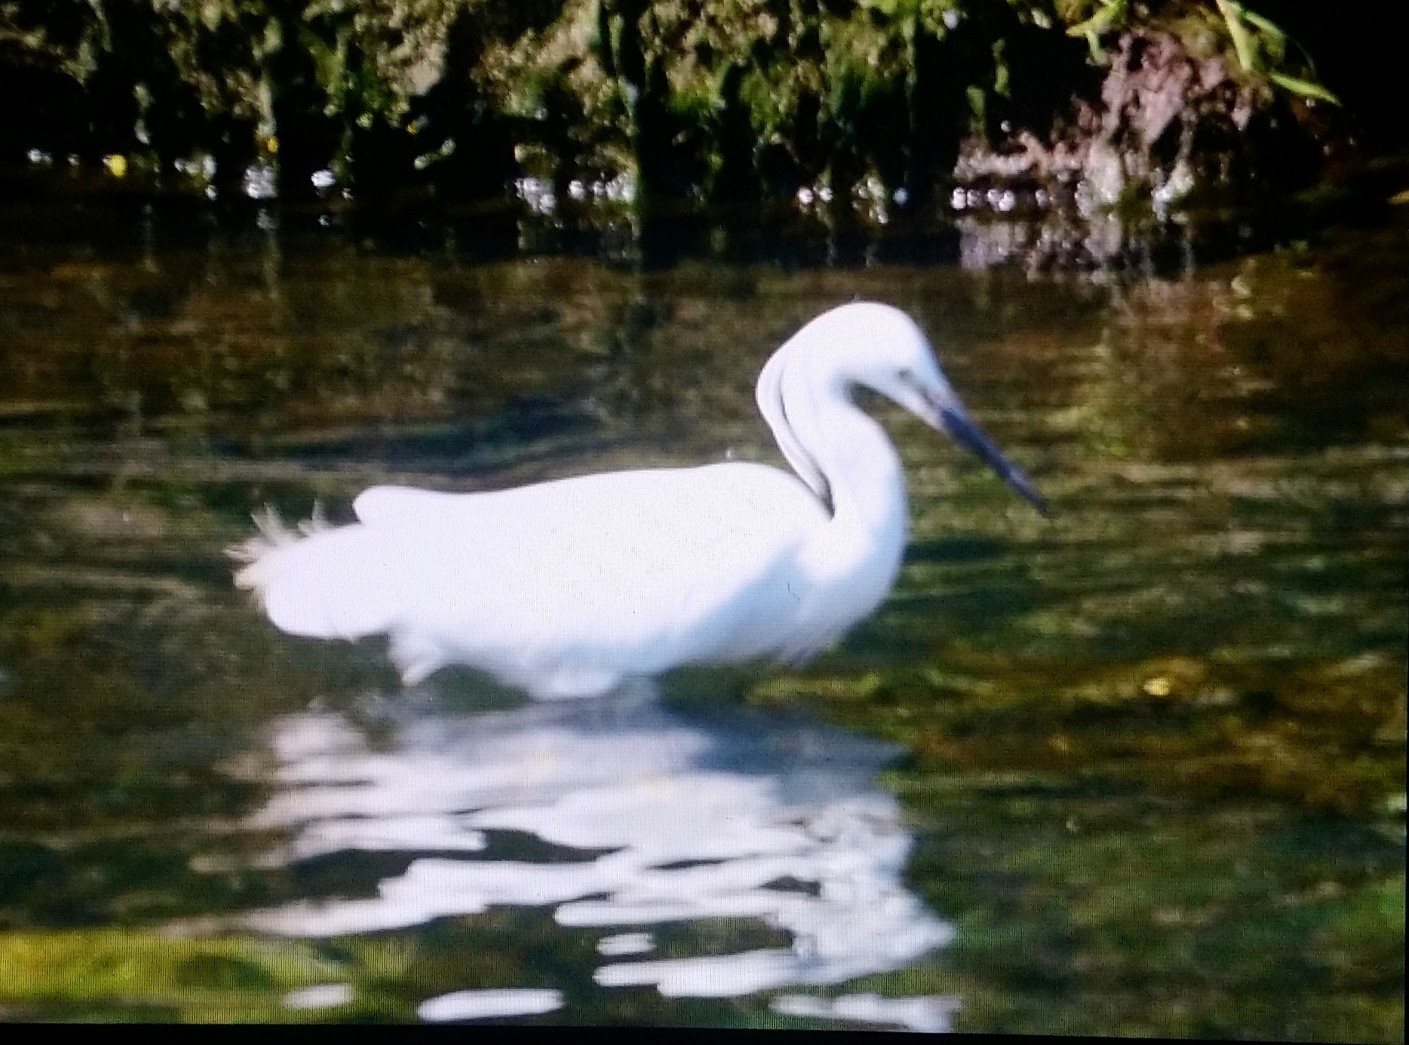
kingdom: Animalia
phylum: Chordata
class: Aves
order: Pelecaniformes
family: Ardeidae
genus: Egretta
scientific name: Egretta garzetta
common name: Little egret
